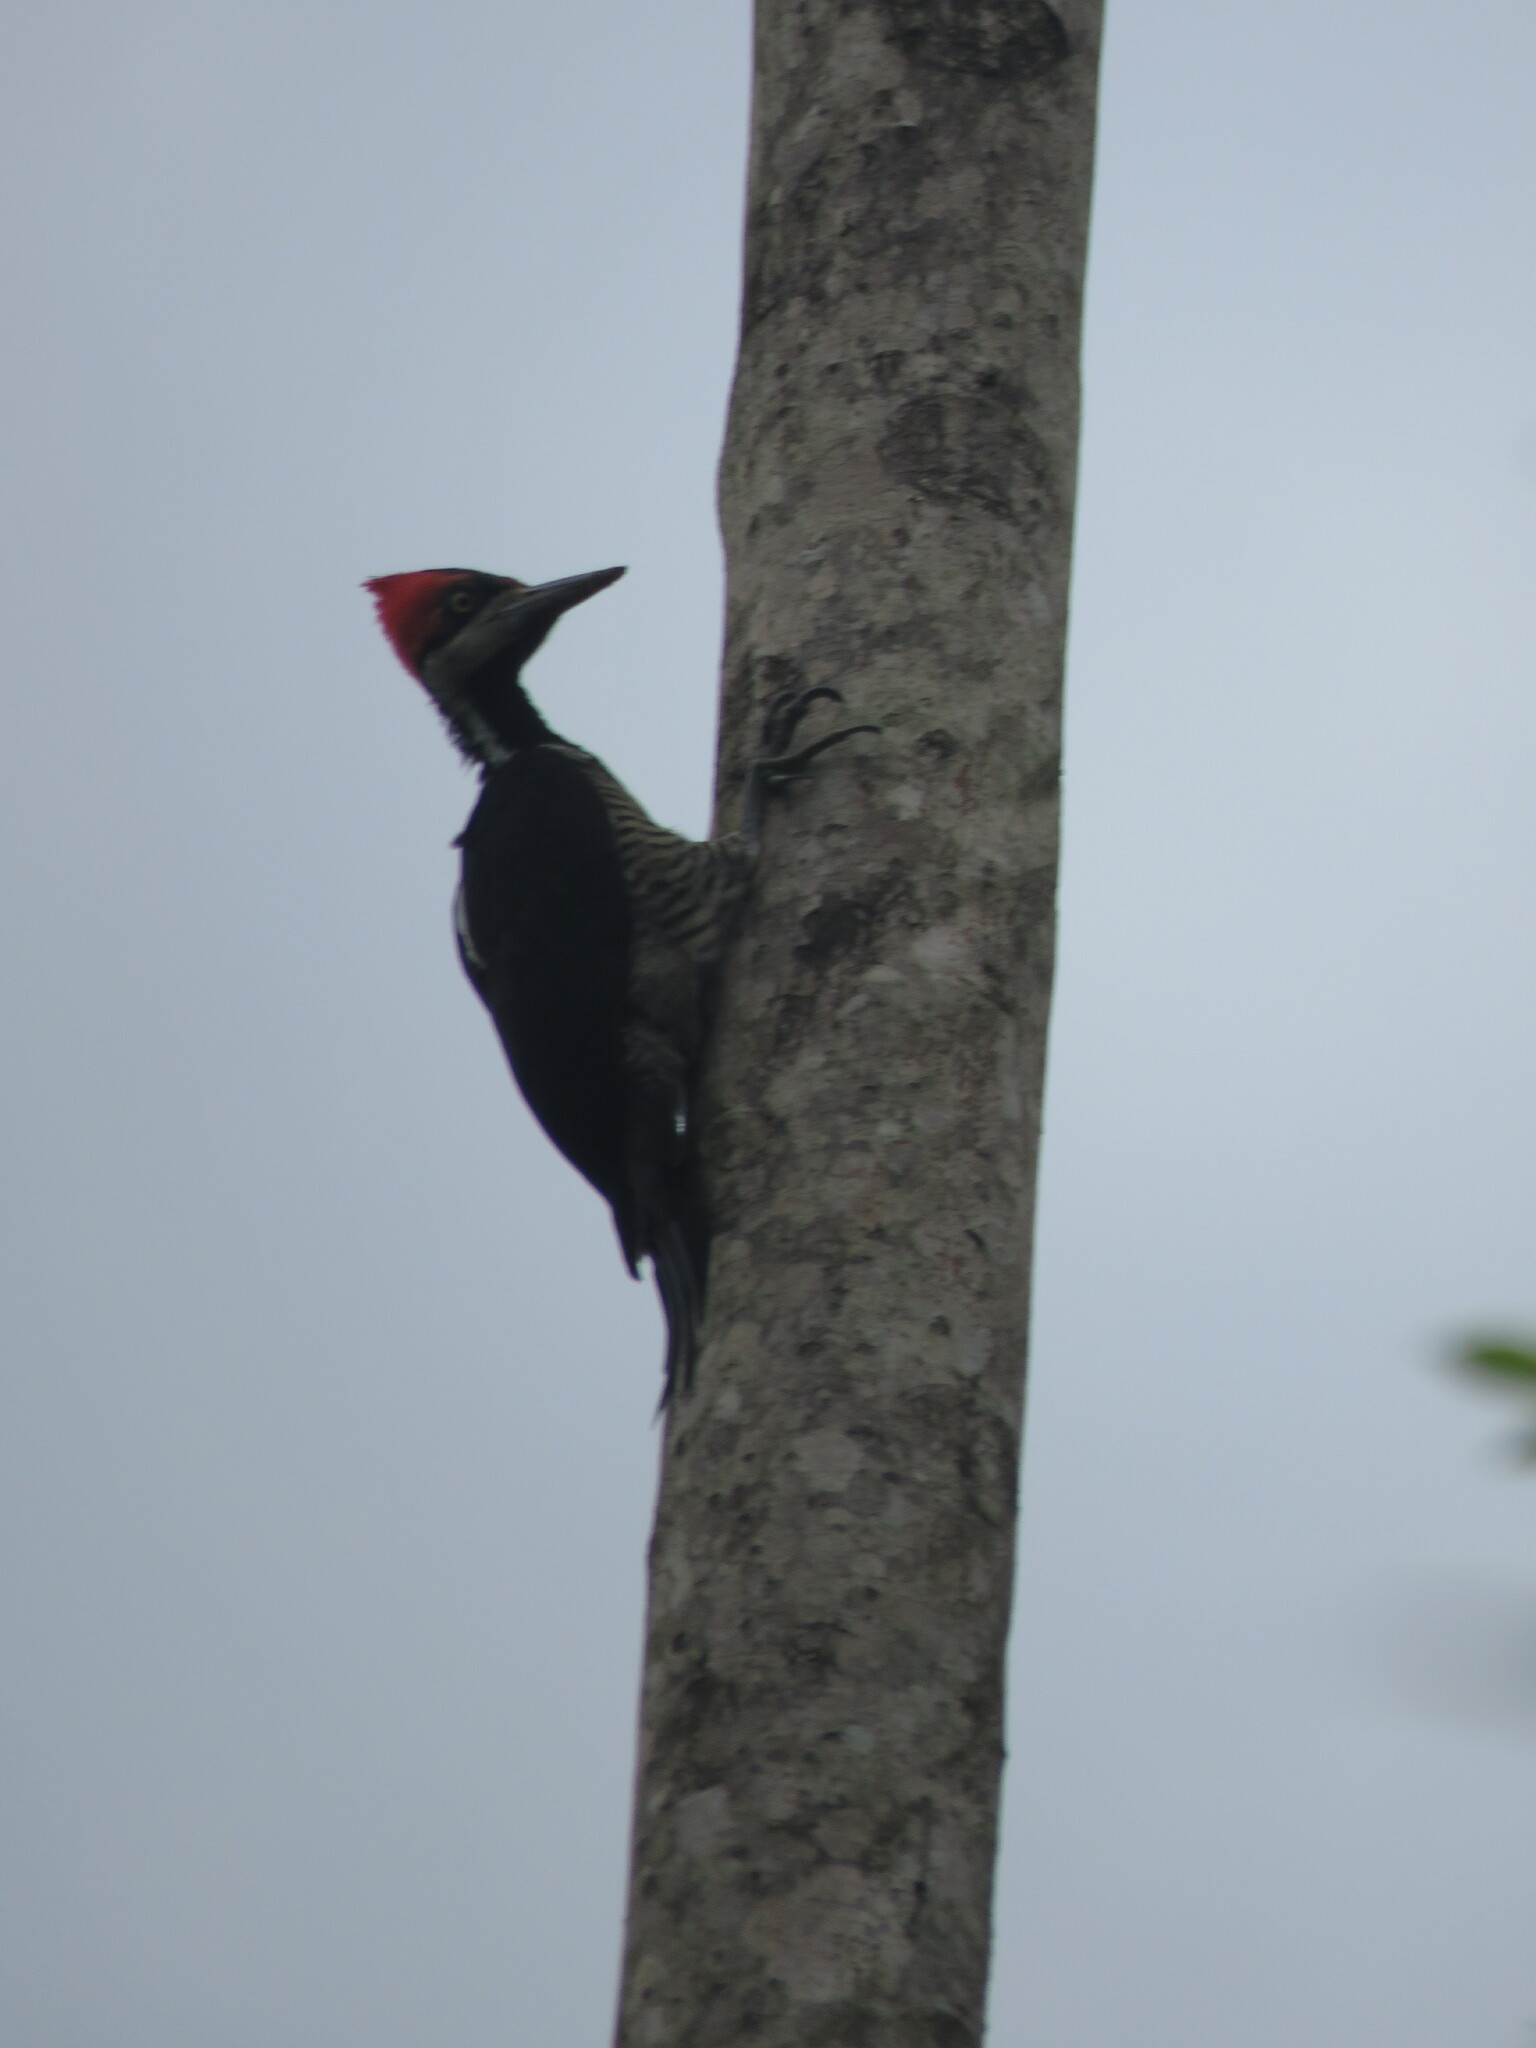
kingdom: Animalia
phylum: Chordata
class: Aves
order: Piciformes
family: Picidae
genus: Campephilus
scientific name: Campephilus melanoleucos
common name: Crimson-crested woodpecker
